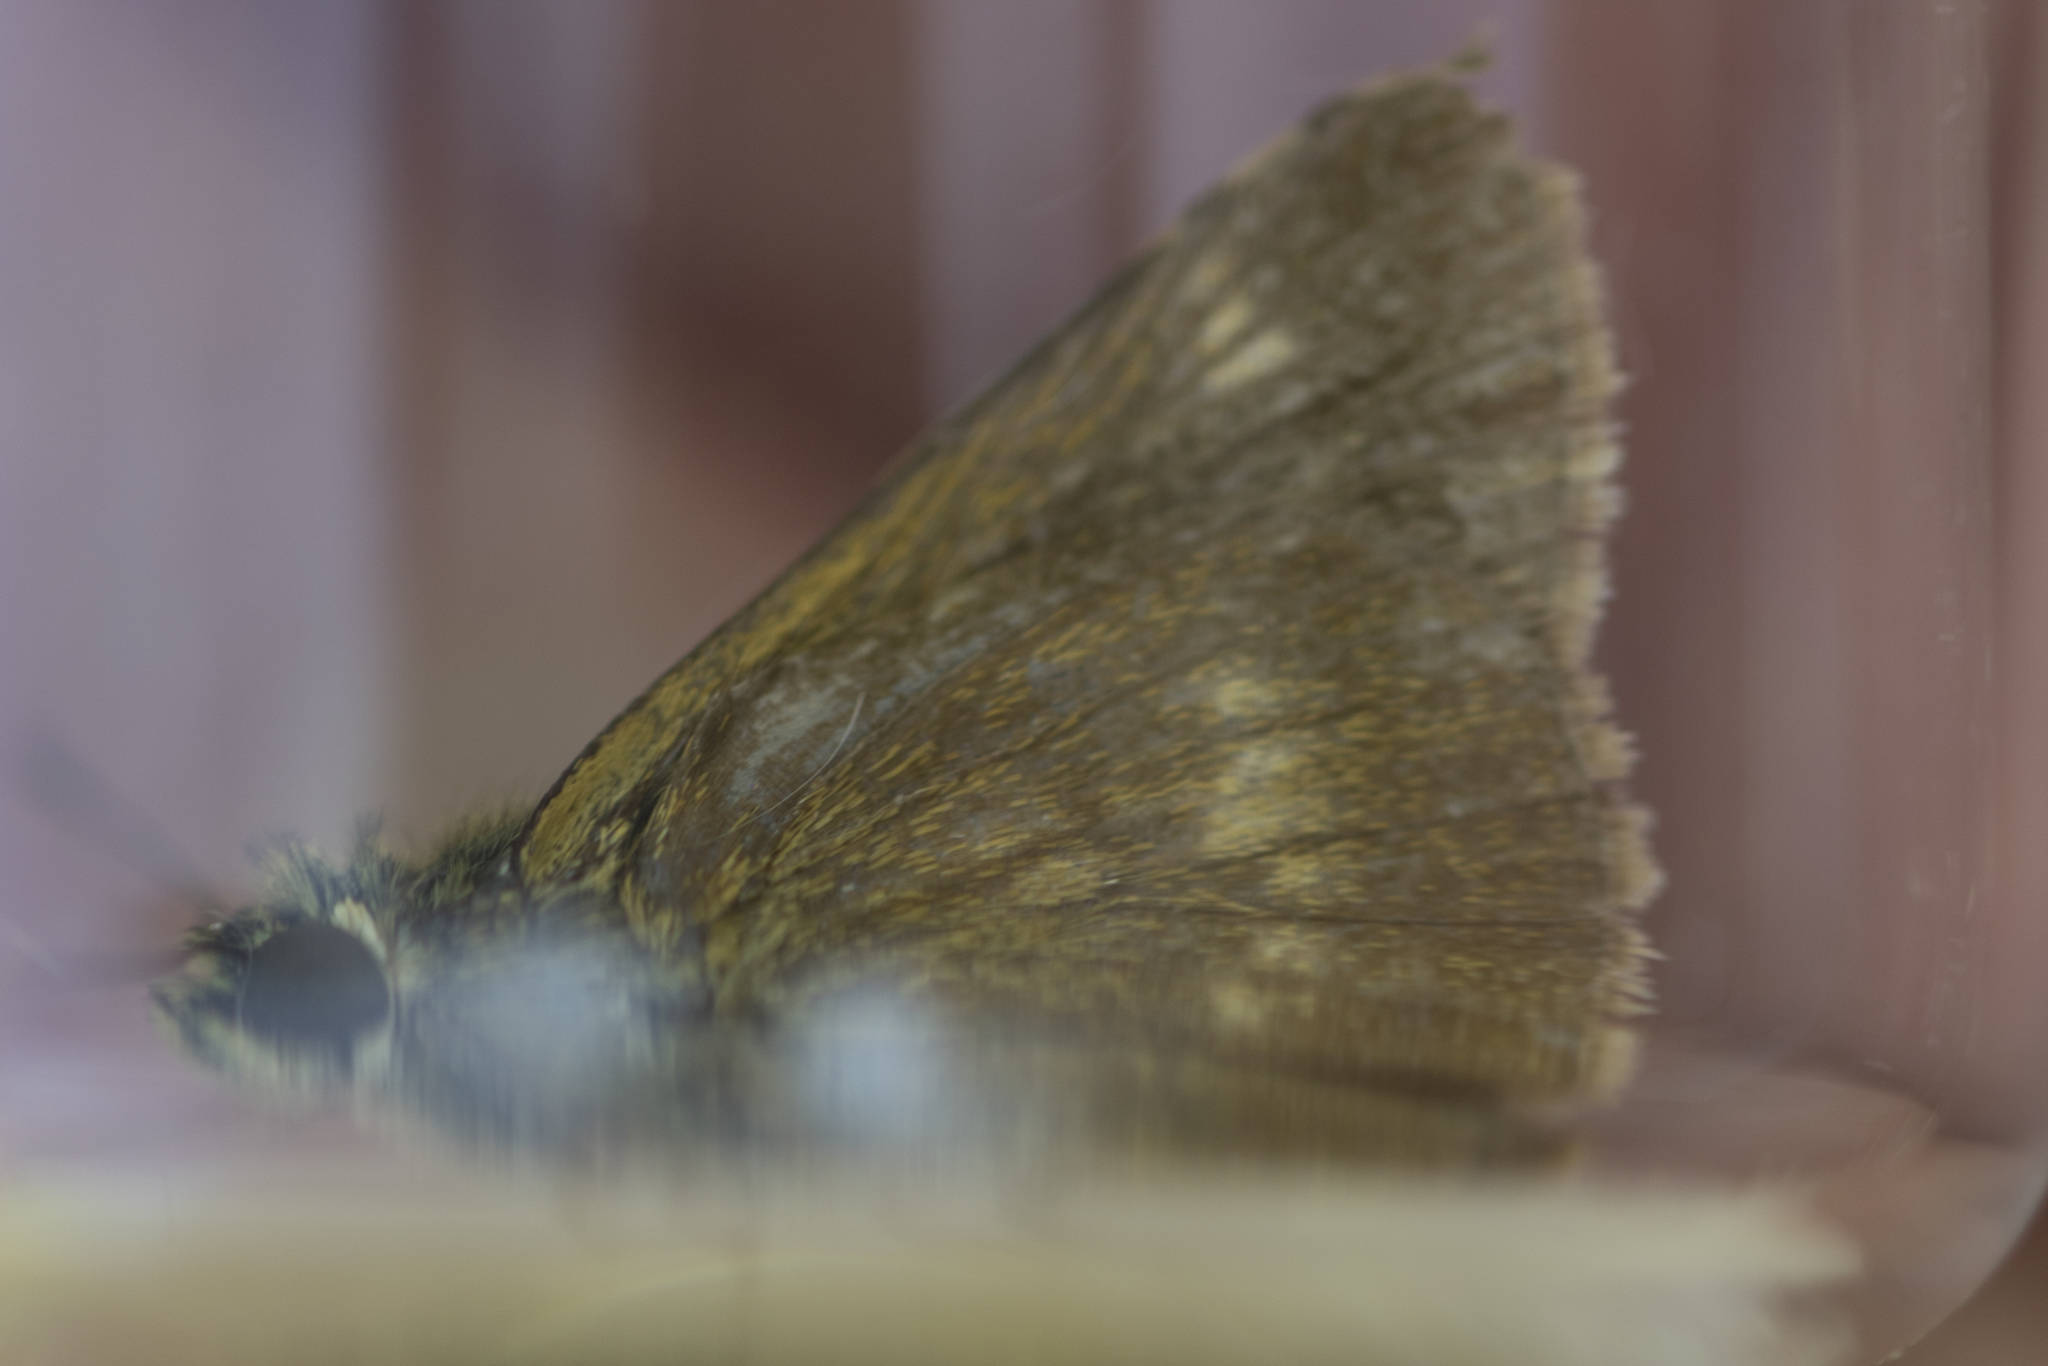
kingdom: Animalia
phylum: Arthropoda
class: Insecta
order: Lepidoptera
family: Hesperiidae
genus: Polites
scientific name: Polites egeremet
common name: Northern broken-dash
